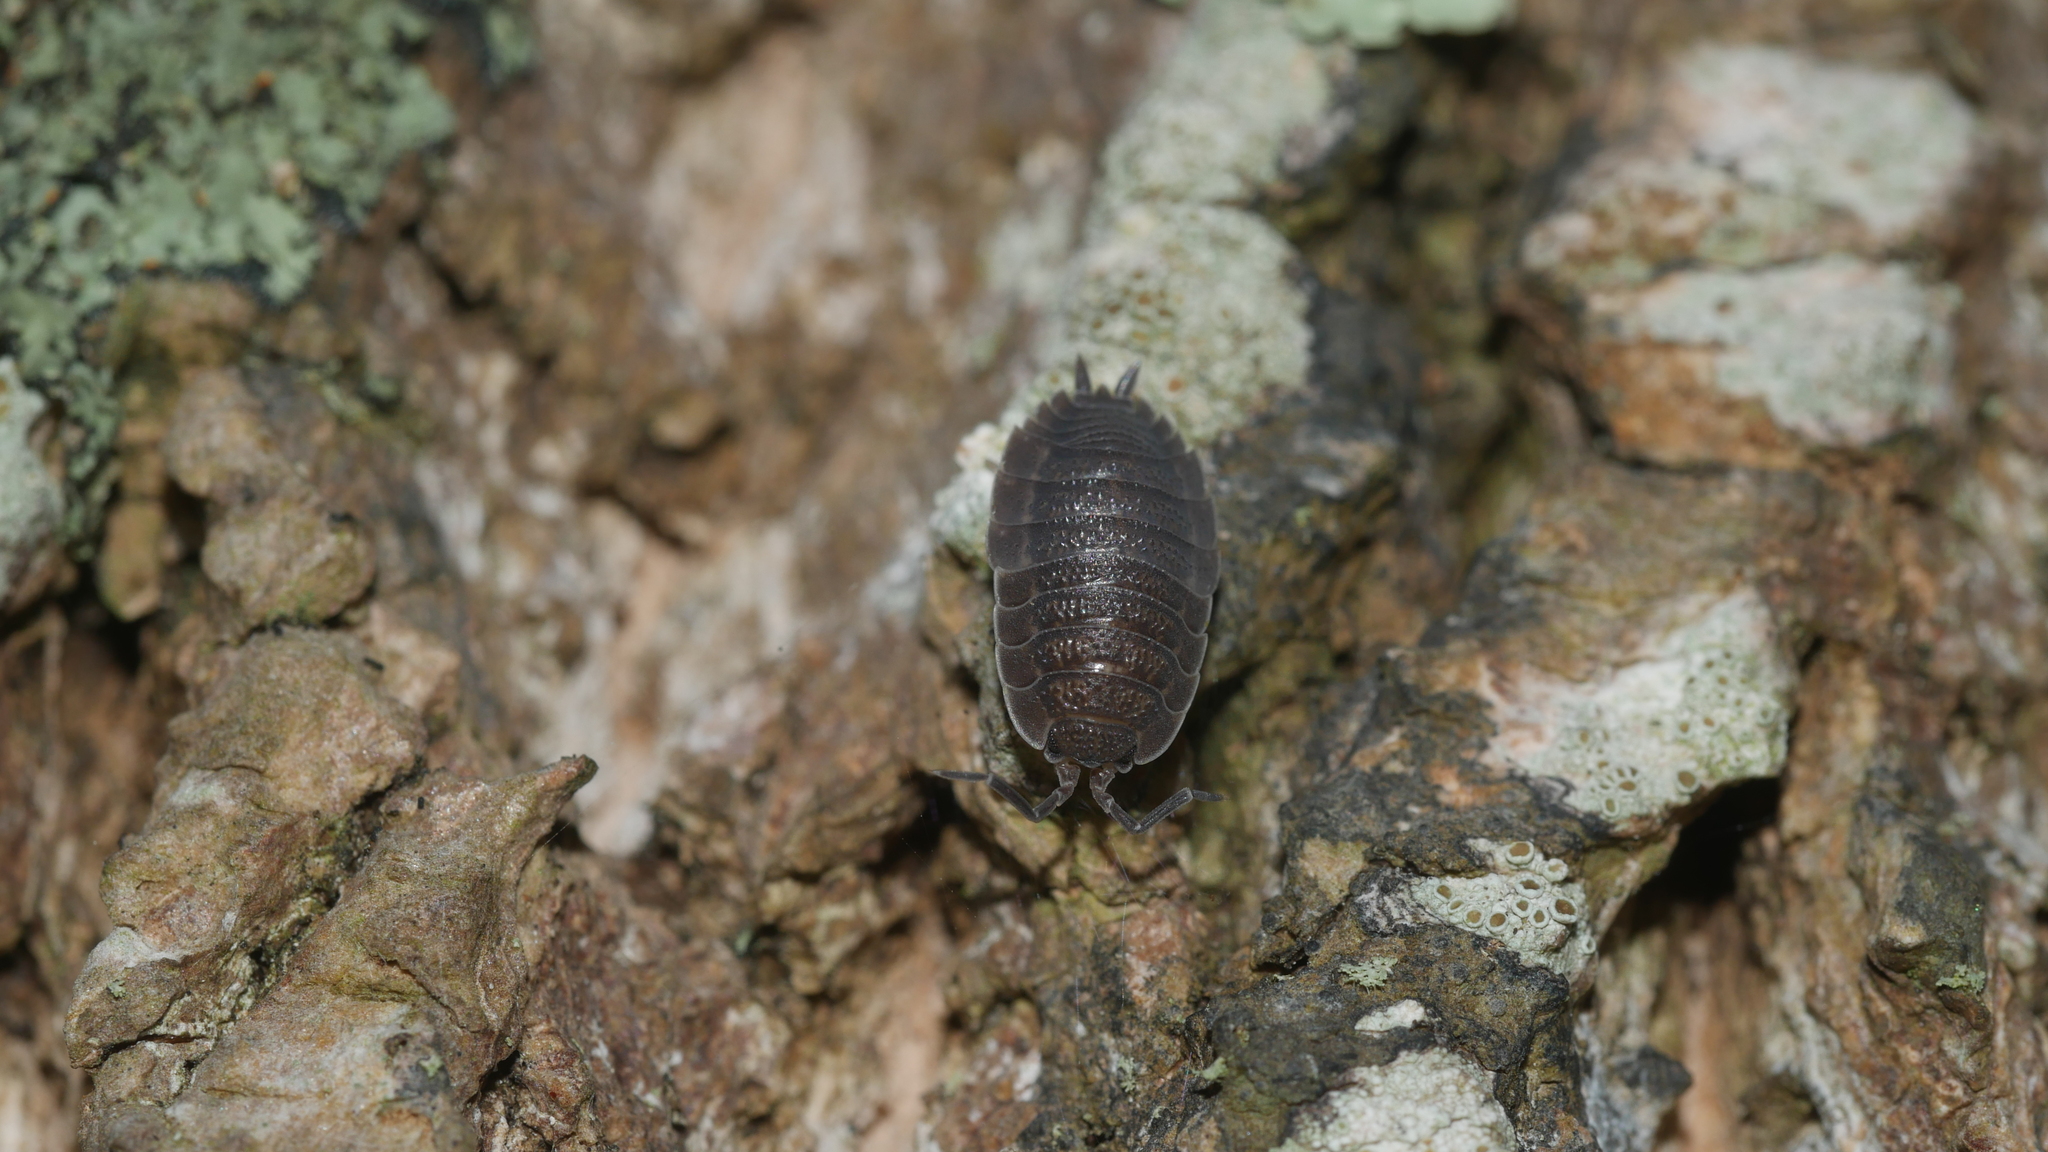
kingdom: Animalia
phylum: Arthropoda
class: Malacostraca
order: Isopoda
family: Porcellionidae
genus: Porcellio
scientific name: Porcellio scaber
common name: Common rough woodlouse
